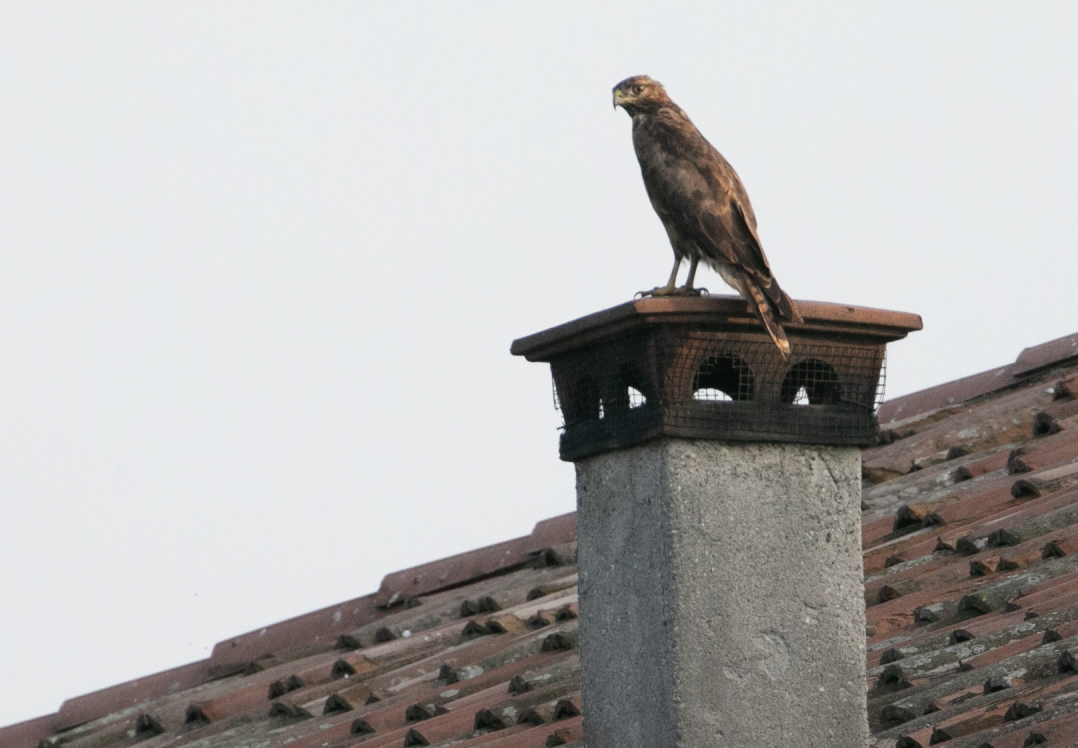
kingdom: Animalia
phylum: Chordata
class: Aves
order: Accipitriformes
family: Accipitridae
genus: Buteo
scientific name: Buteo buteo
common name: Common buzzard
